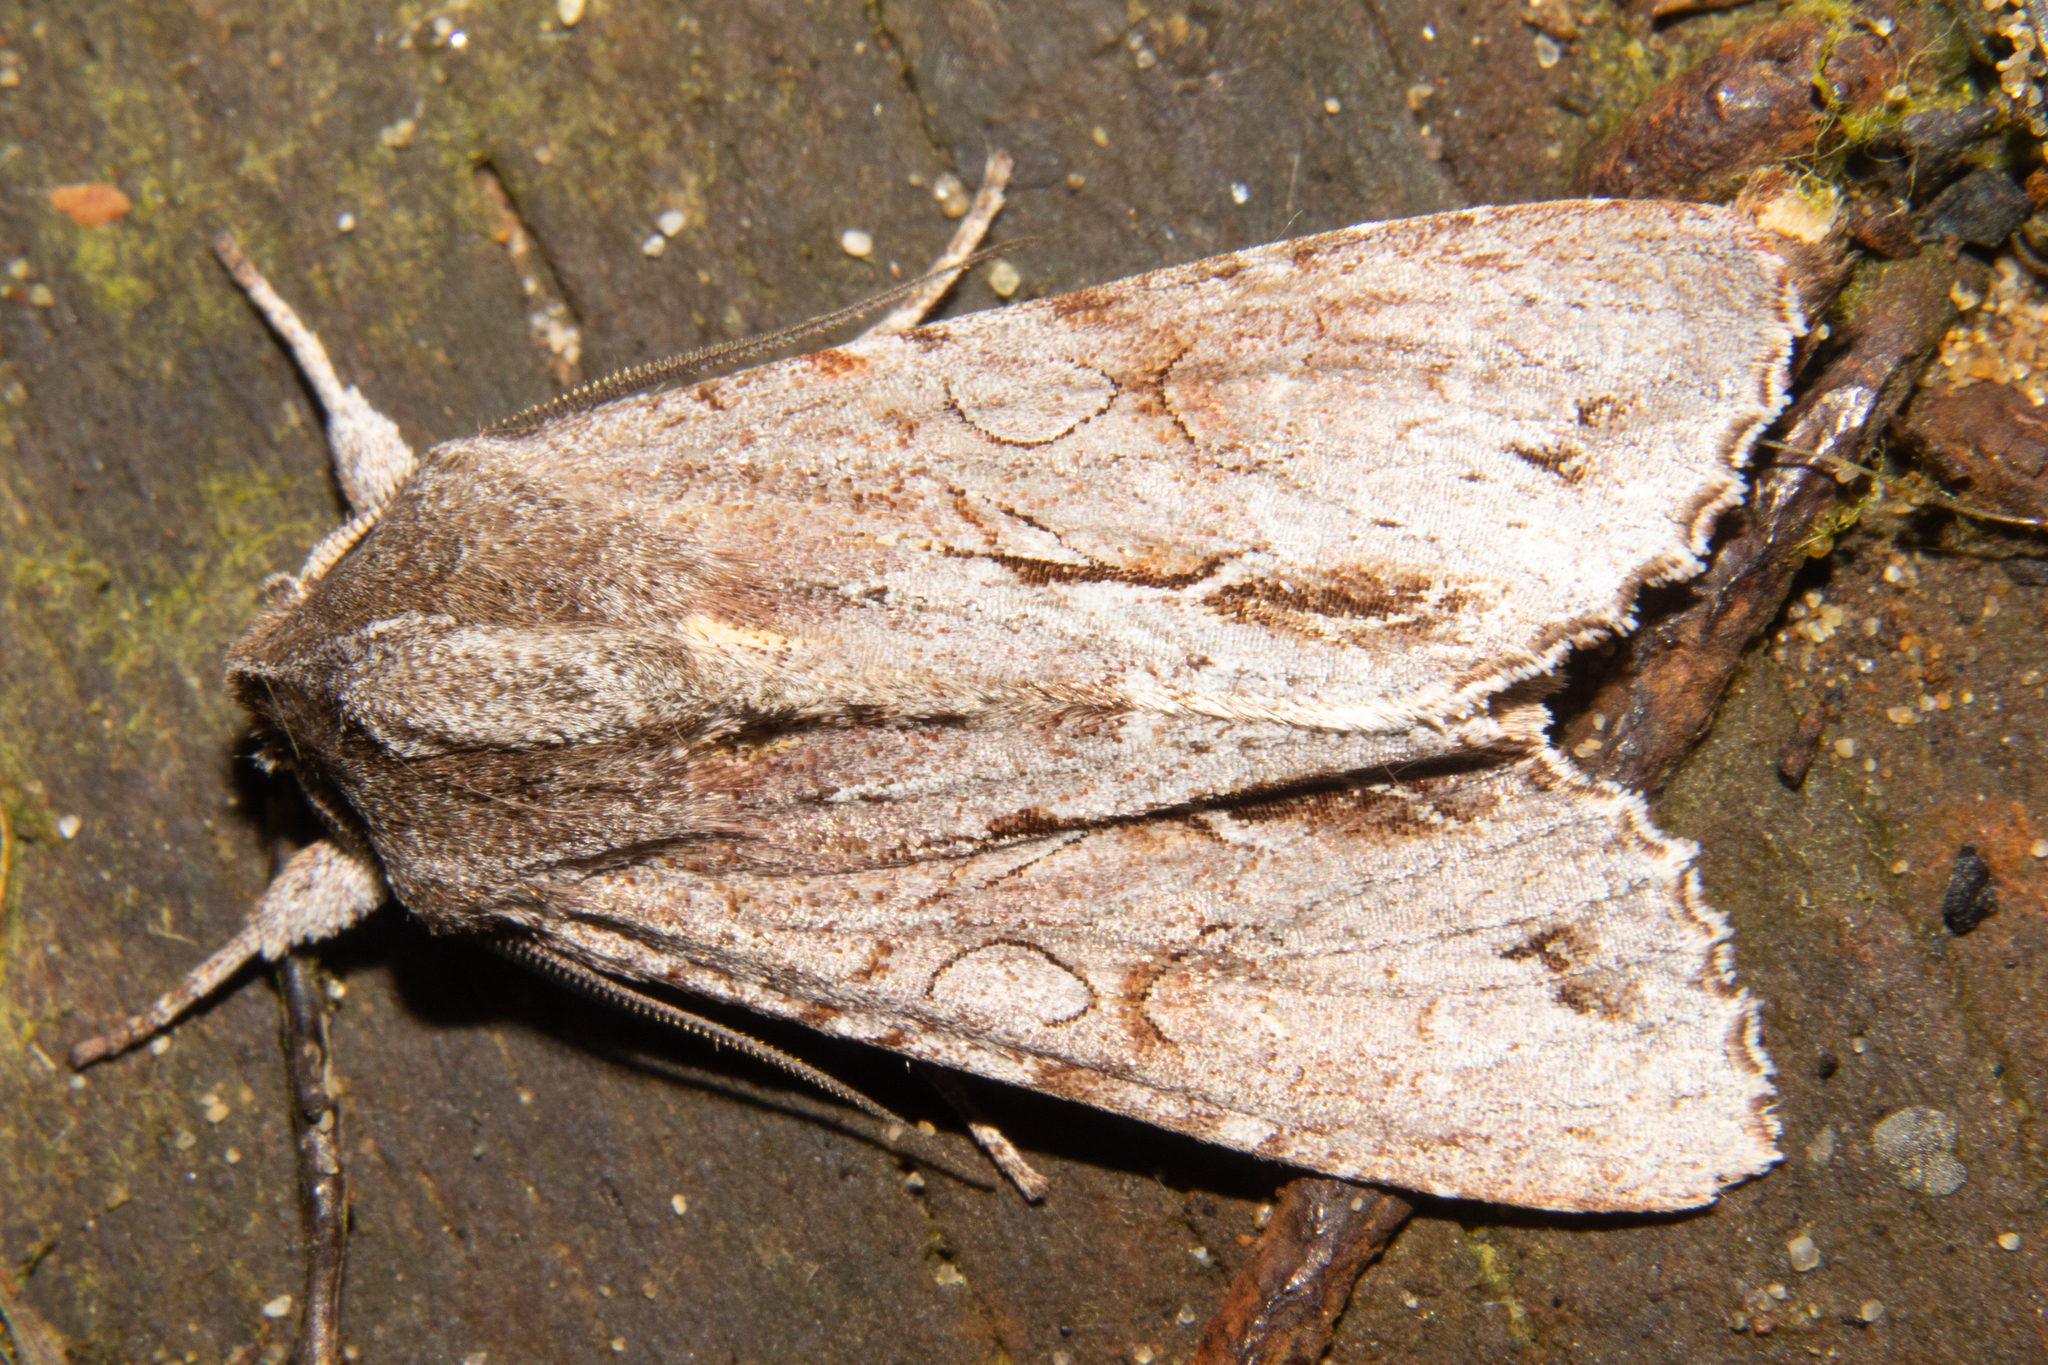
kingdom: Animalia
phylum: Arthropoda
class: Insecta
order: Lepidoptera
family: Noctuidae
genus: Ichneutica
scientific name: Ichneutica
